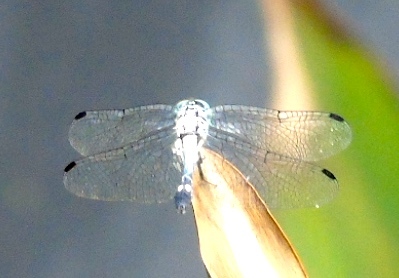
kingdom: Animalia
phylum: Arthropoda
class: Insecta
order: Odonata
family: Libellulidae
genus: Micrathyria
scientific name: Micrathyria aequalis
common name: Spot-tailed dasher
